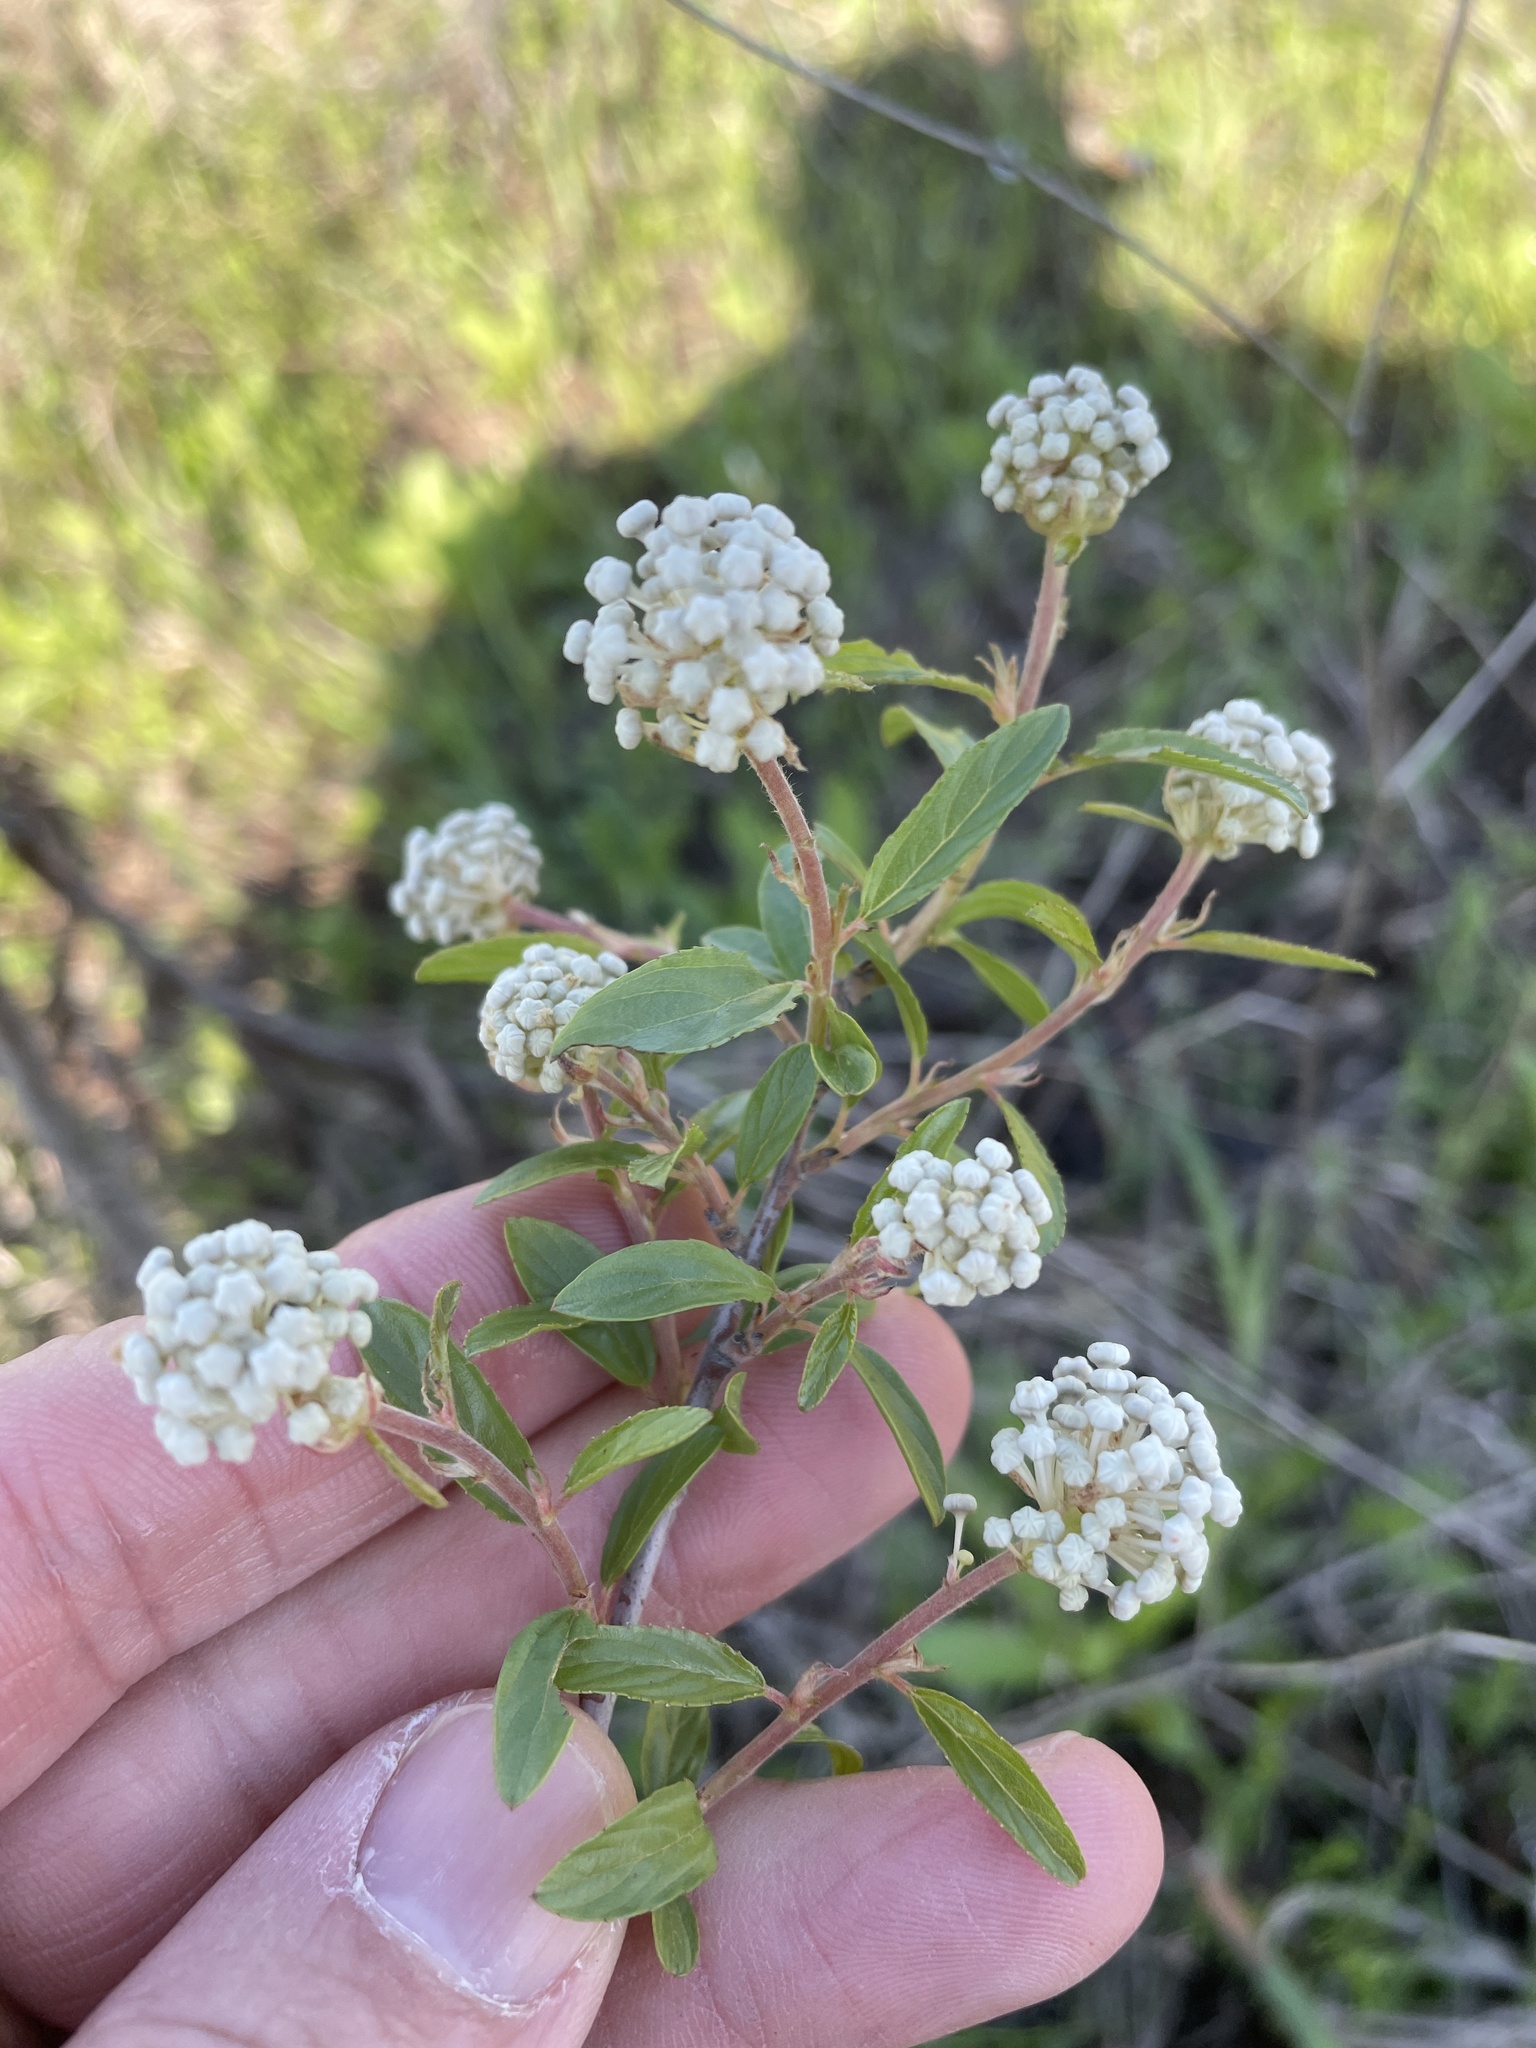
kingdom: Plantae
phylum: Tracheophyta
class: Magnoliopsida
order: Rosales
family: Rhamnaceae
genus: Ceanothus
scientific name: Ceanothus herbaceus
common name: Inland ceanothus
